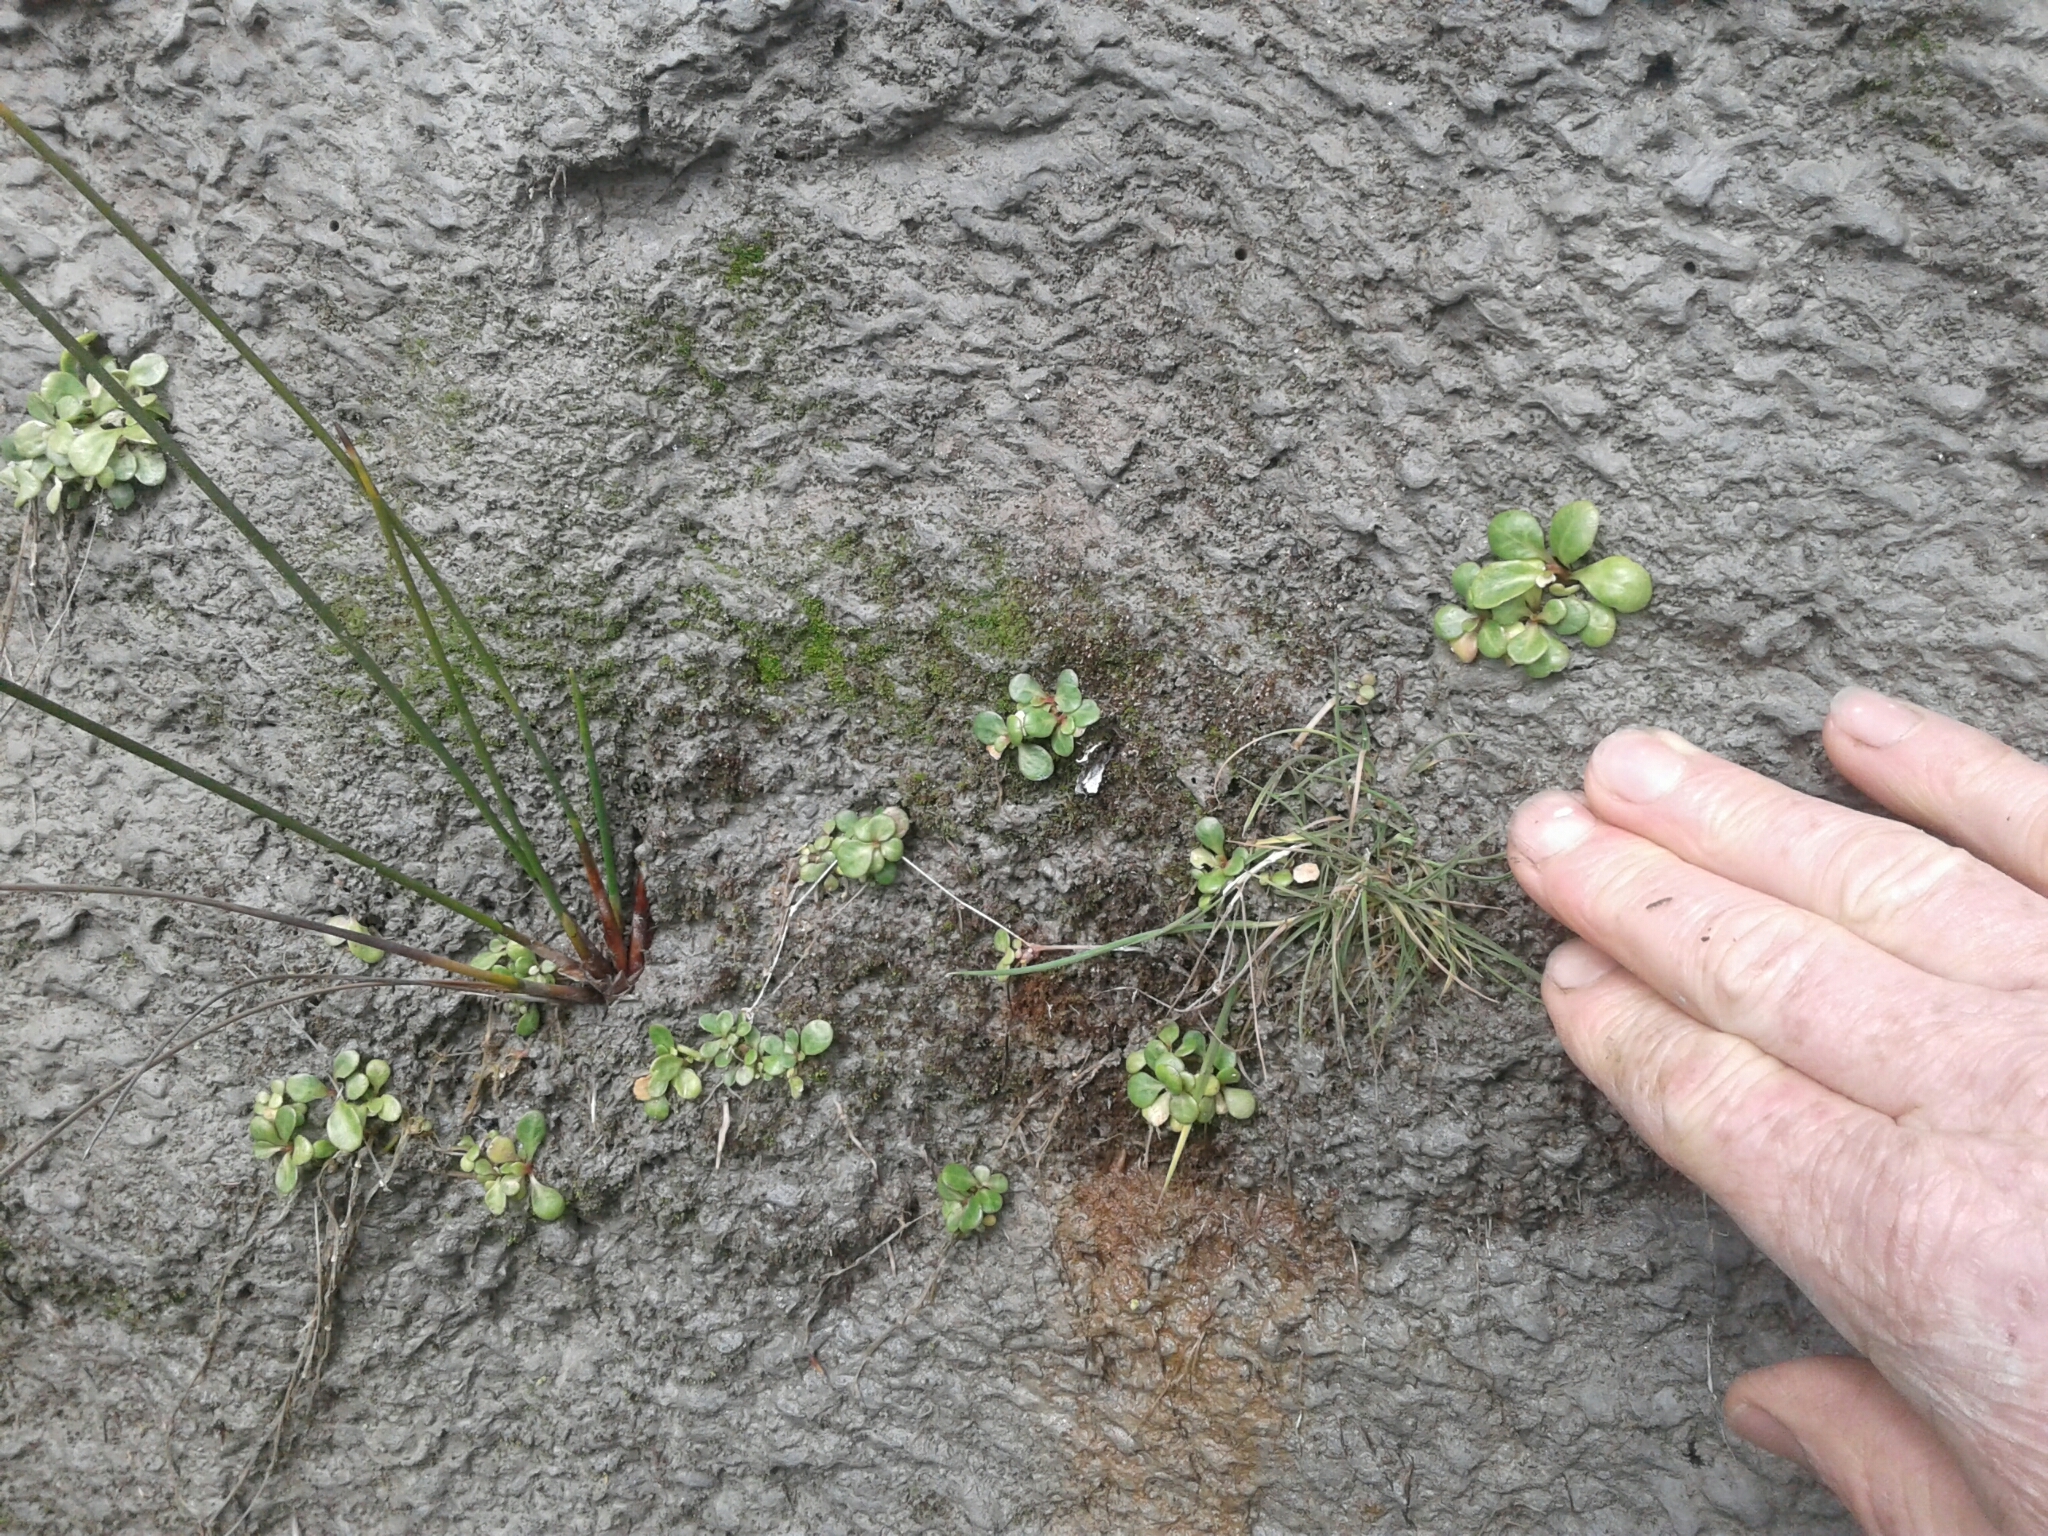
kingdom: Plantae
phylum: Tracheophyta
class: Magnoliopsida
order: Asterales
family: Campanulaceae
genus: Lobelia
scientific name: Lobelia anceps
